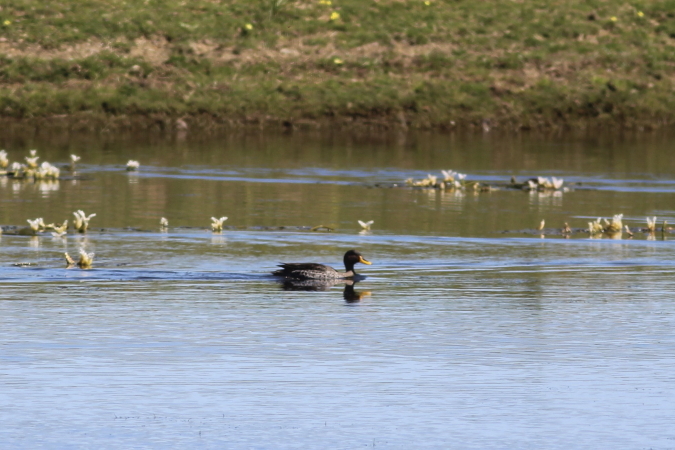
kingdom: Animalia
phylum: Chordata
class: Aves
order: Anseriformes
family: Anatidae
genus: Anas
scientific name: Anas undulata
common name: Yellow-billed duck
